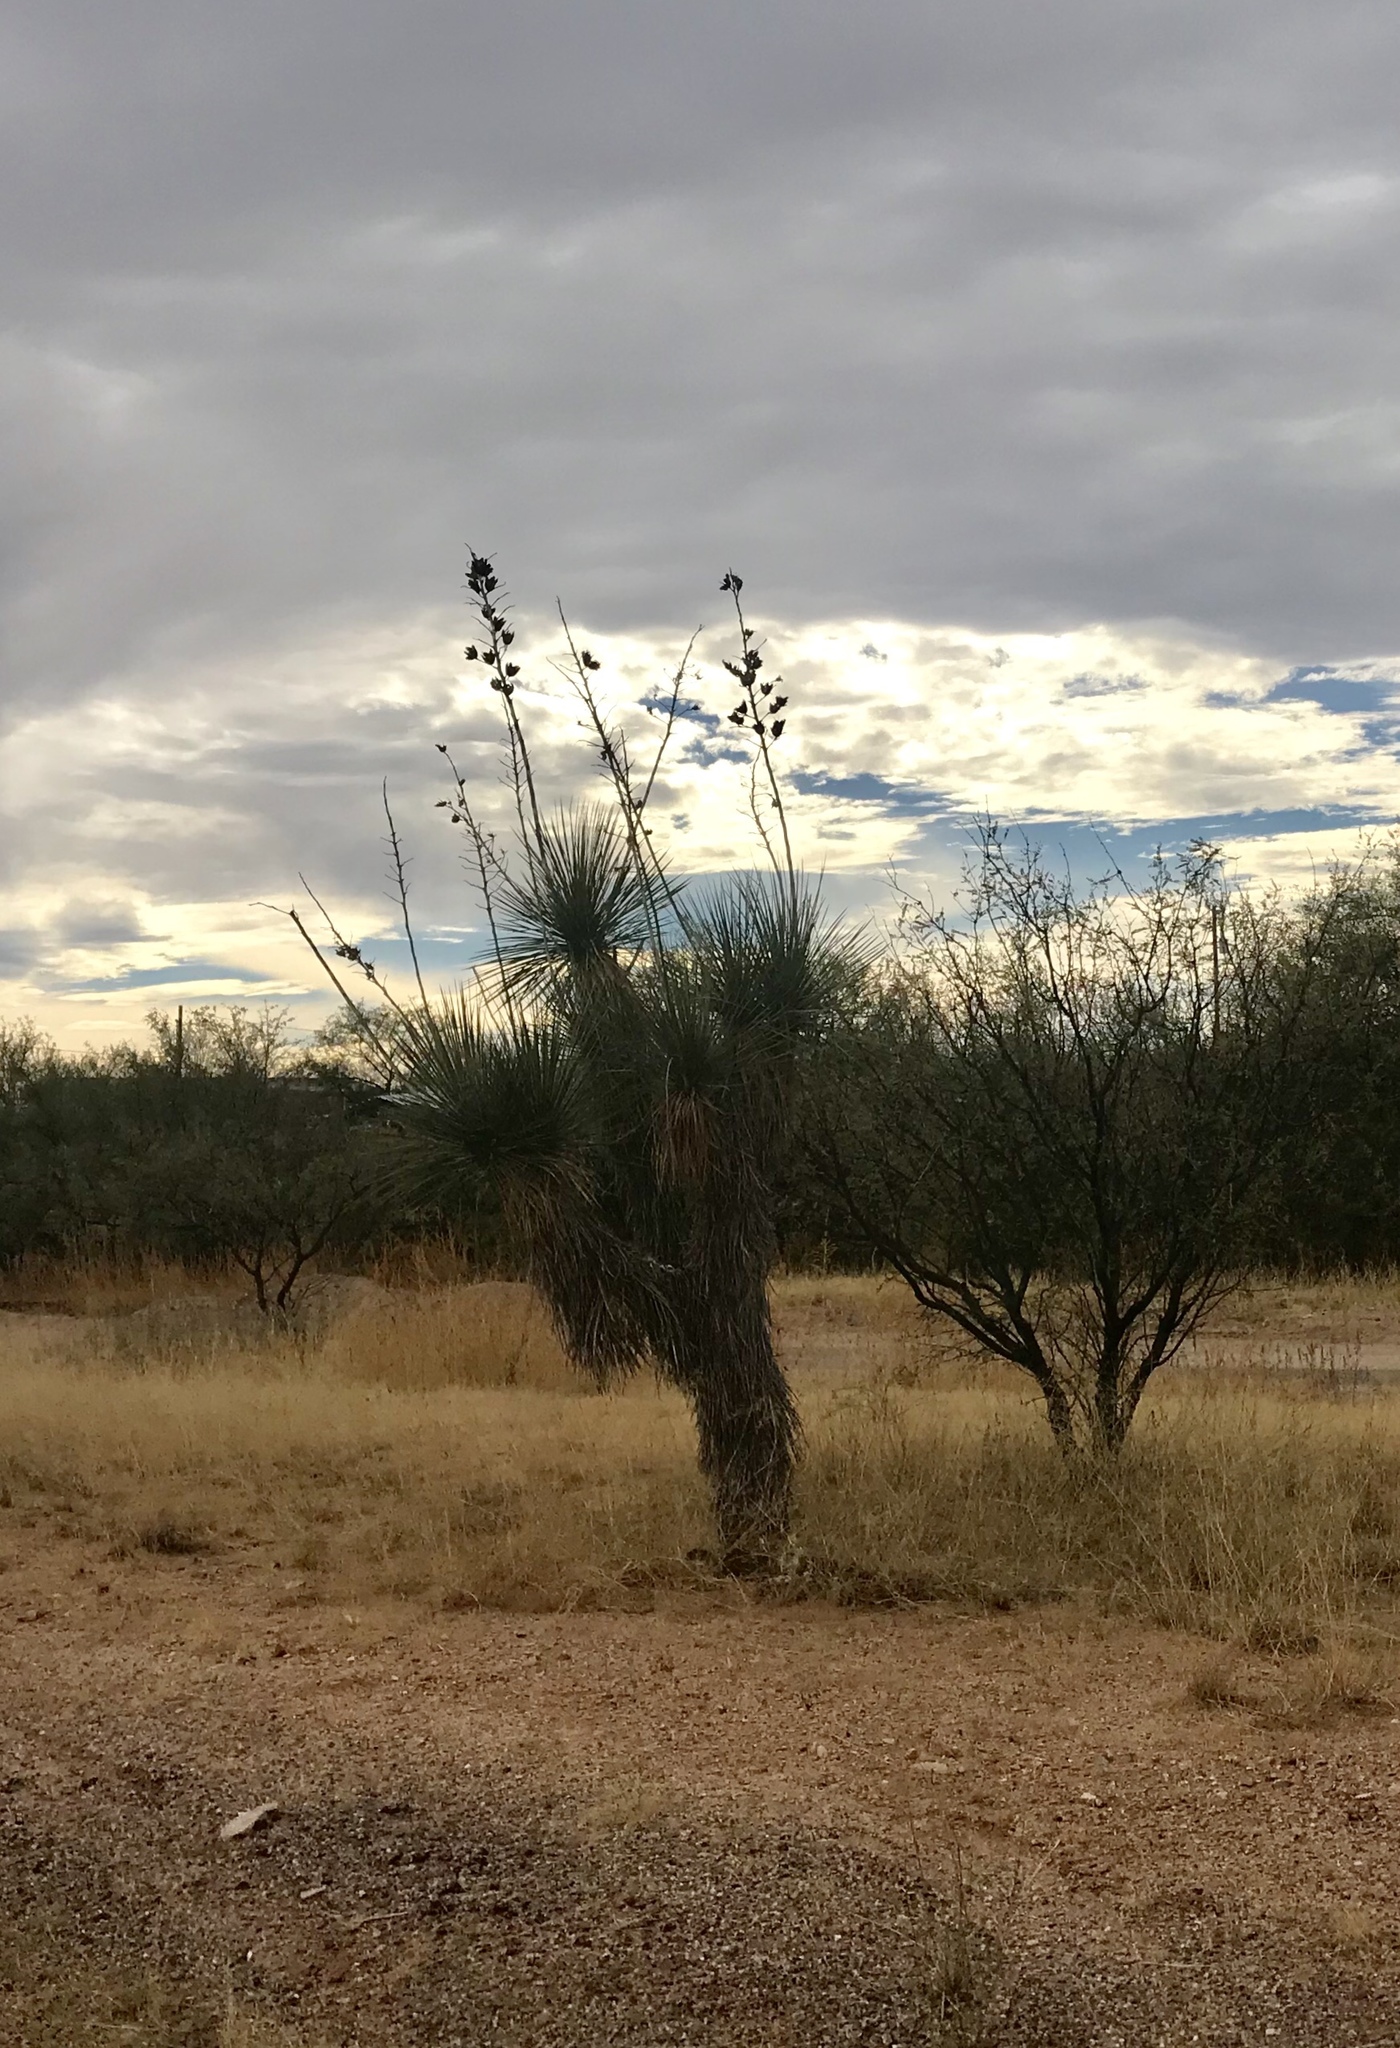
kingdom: Plantae
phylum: Tracheophyta
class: Liliopsida
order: Asparagales
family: Asparagaceae
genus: Yucca
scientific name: Yucca elata
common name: Palmella
